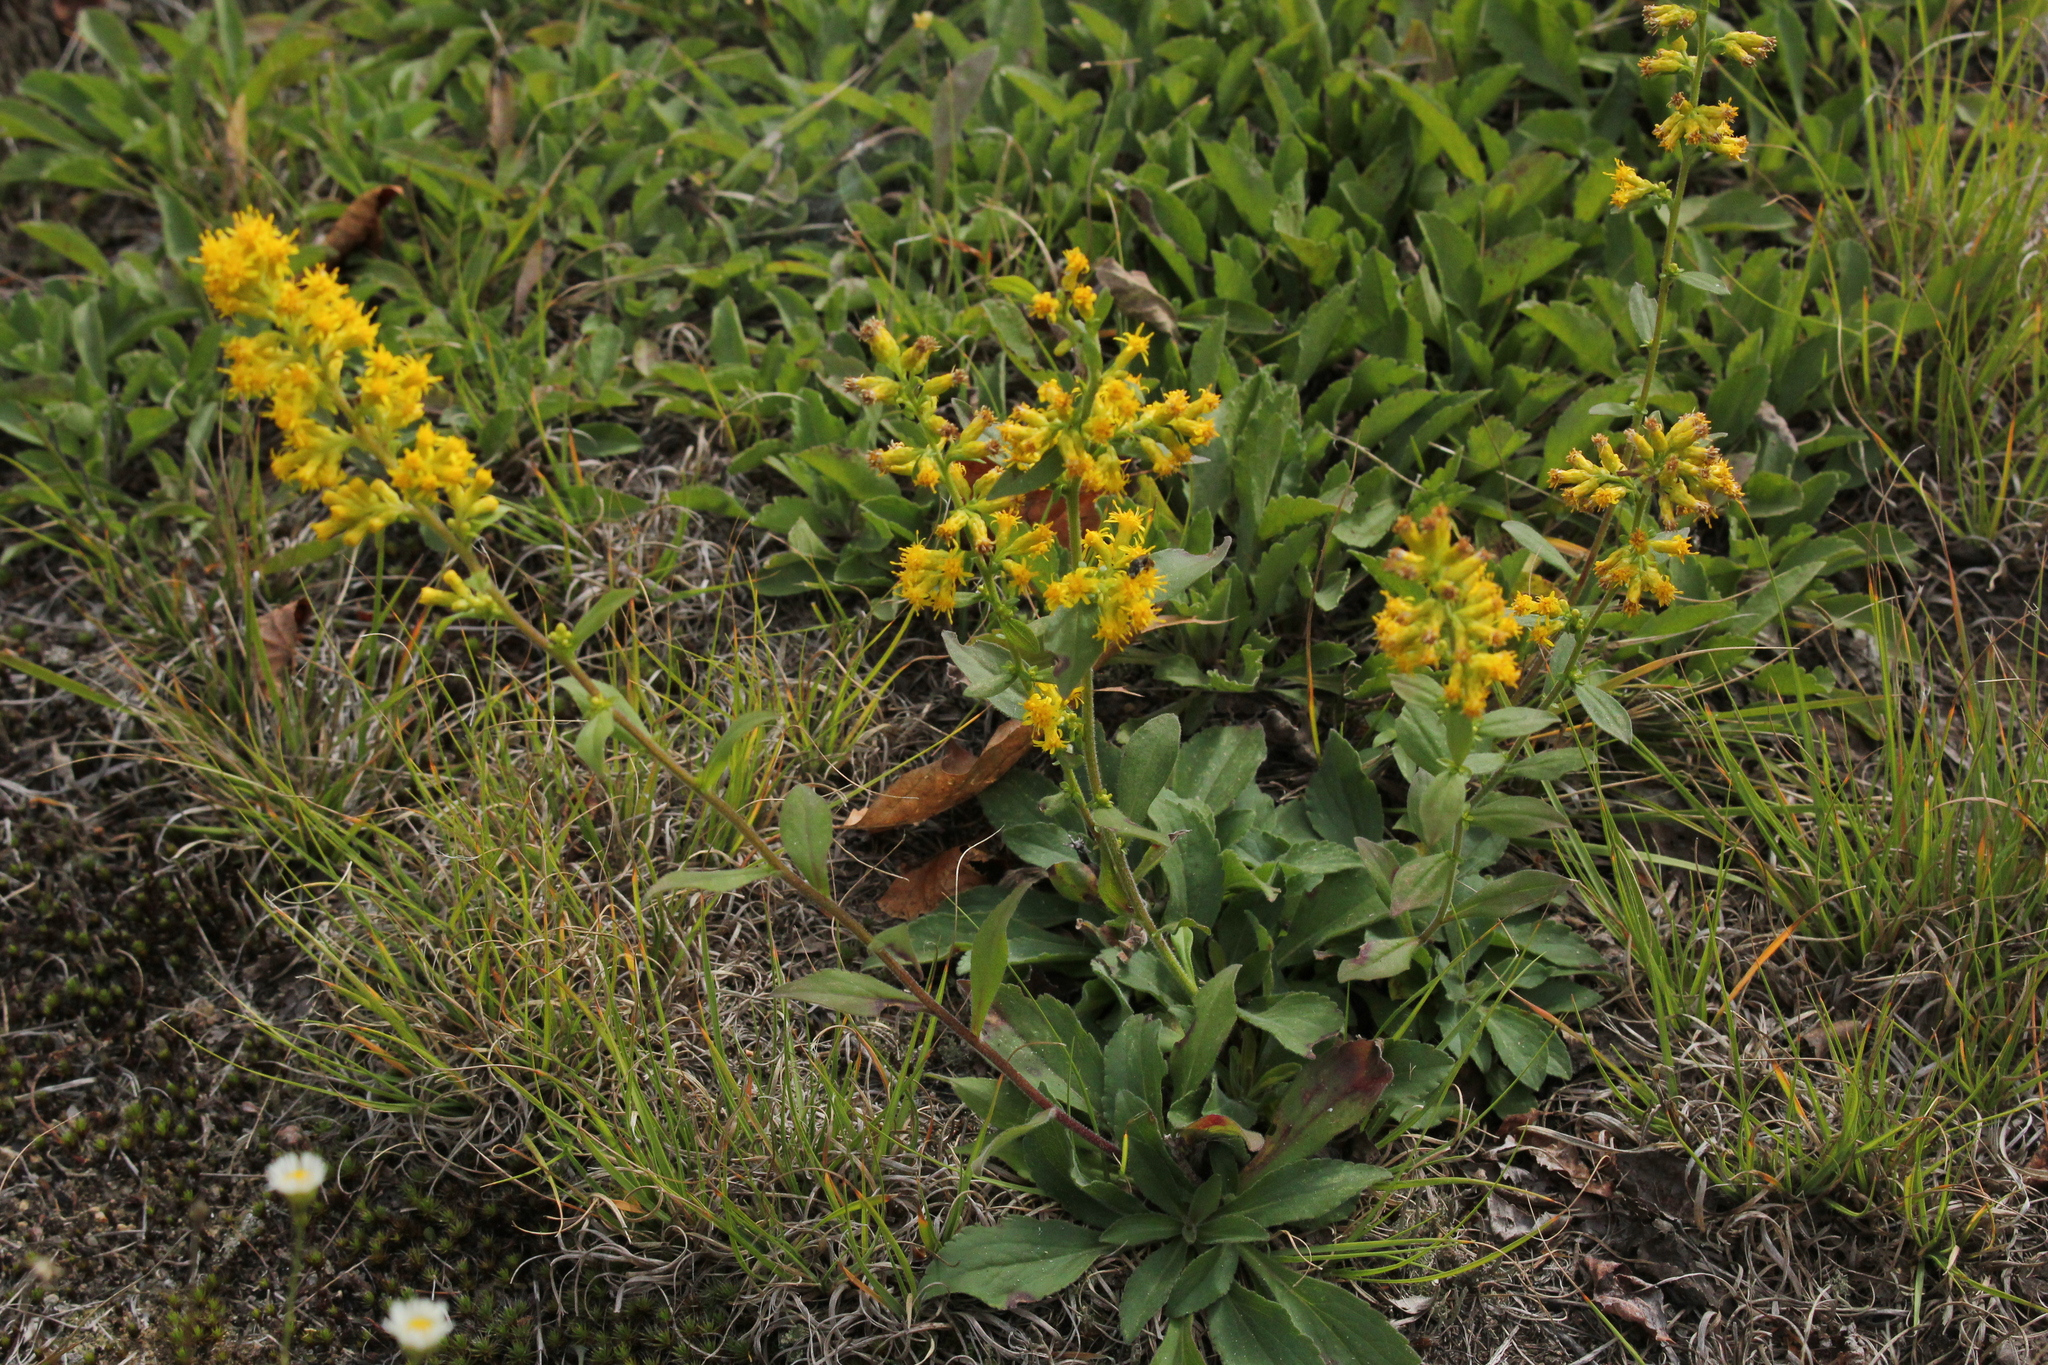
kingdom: Plantae
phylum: Tracheophyta
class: Magnoliopsida
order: Asterales
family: Asteraceae
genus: Solidago
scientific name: Solidago hispida
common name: Hairy goldenrod
